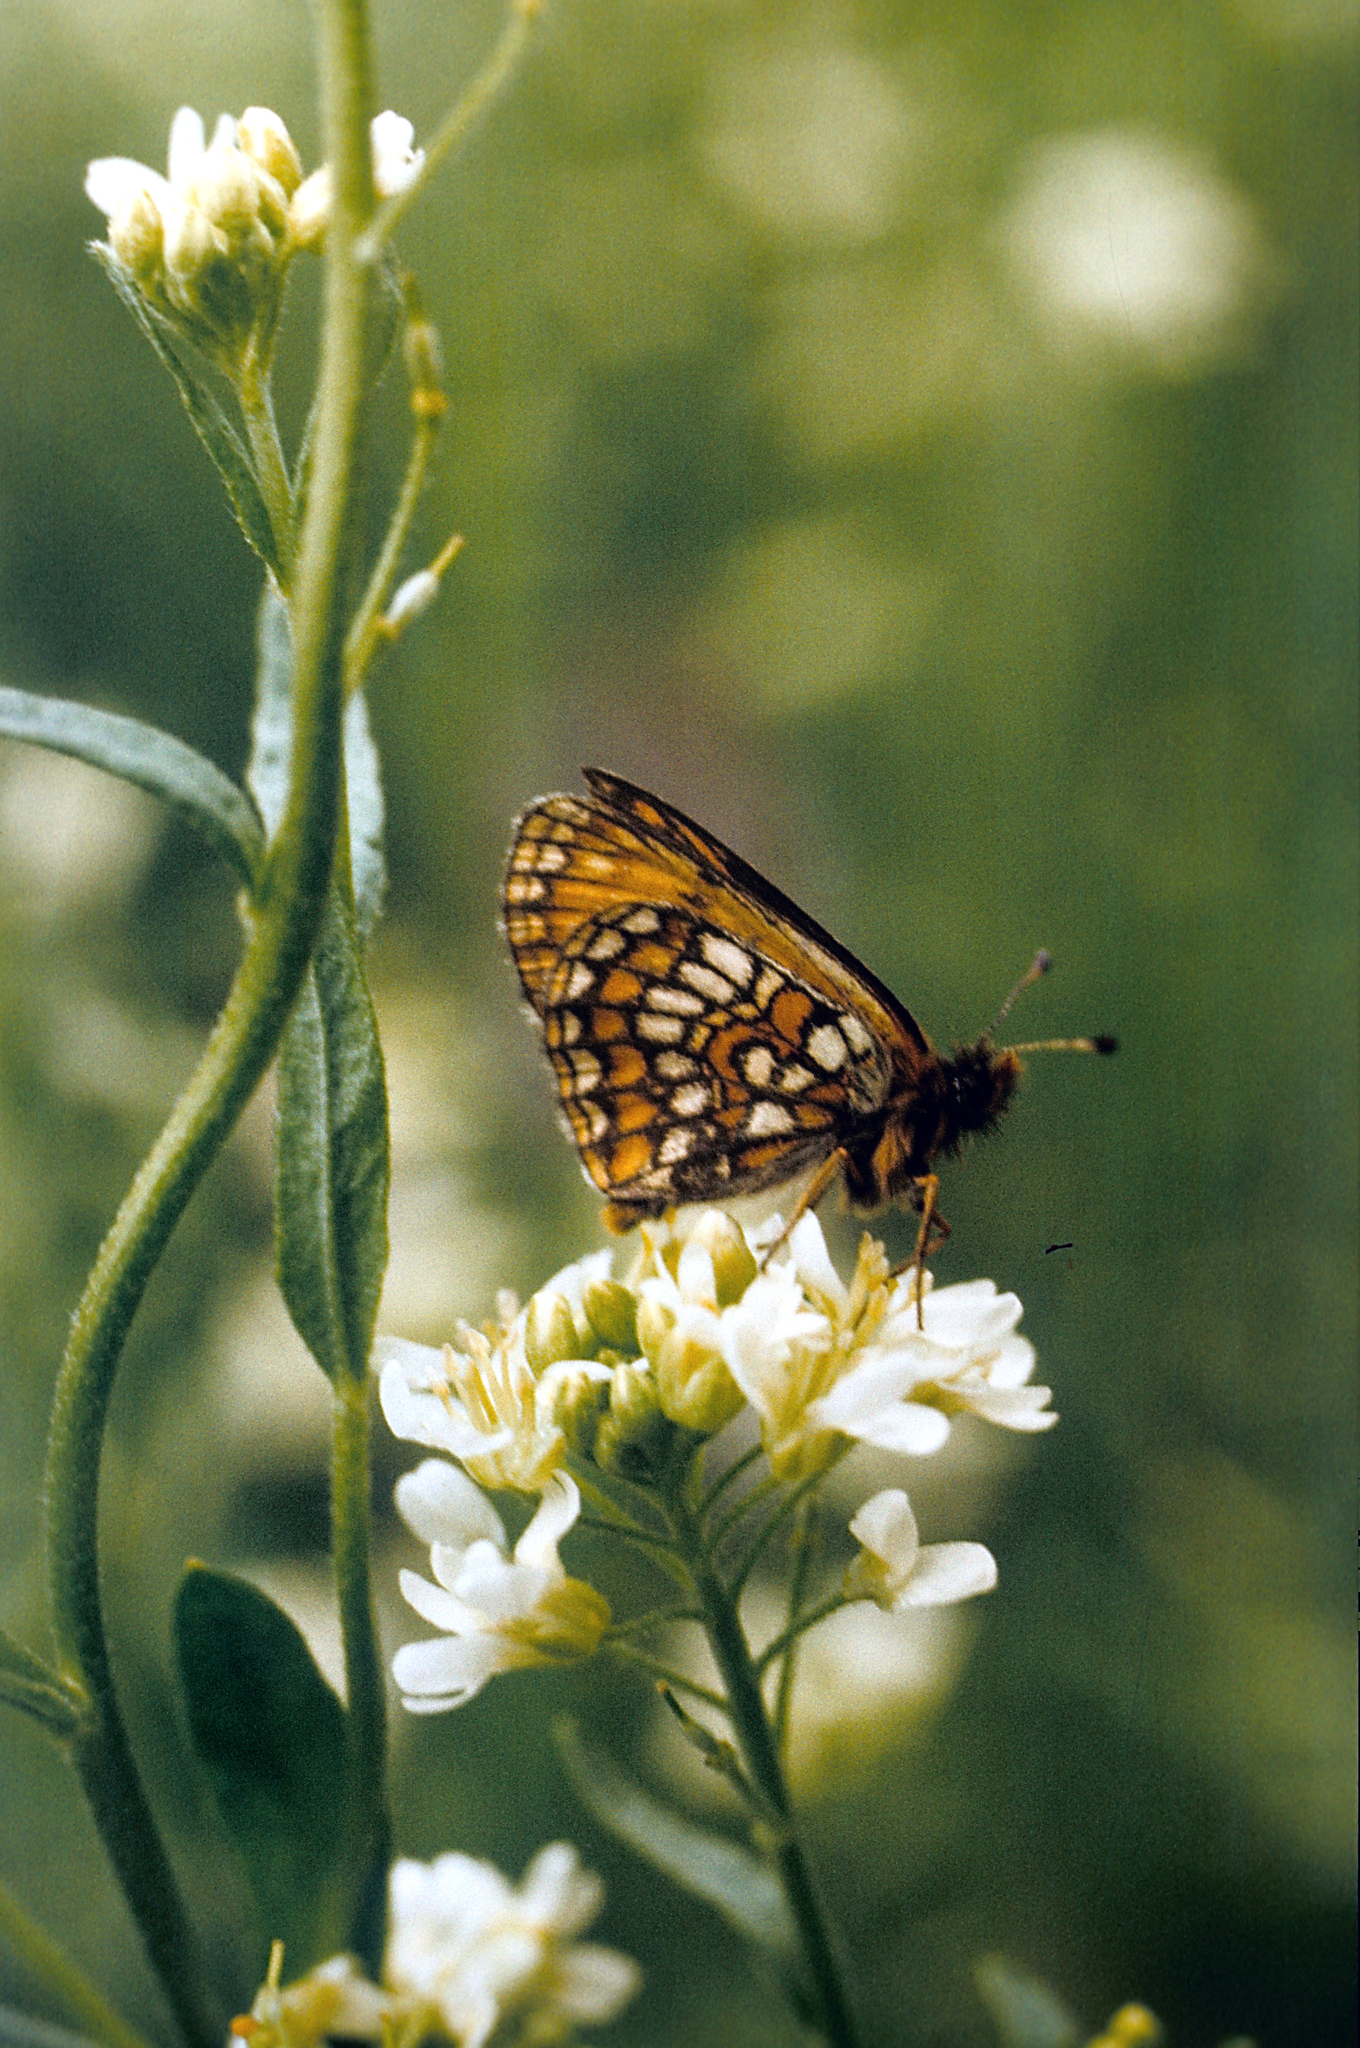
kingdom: Plantae
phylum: Tracheophyta
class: Magnoliopsida
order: Brassicales
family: Brassicaceae
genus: Berteroa
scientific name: Berteroa incana
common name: Hoary alison
